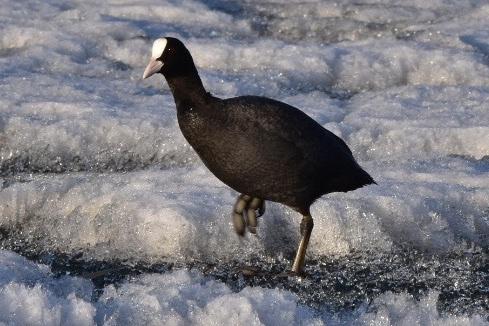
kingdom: Animalia
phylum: Chordata
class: Aves
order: Gruiformes
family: Rallidae
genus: Fulica
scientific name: Fulica atra
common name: Eurasian coot
